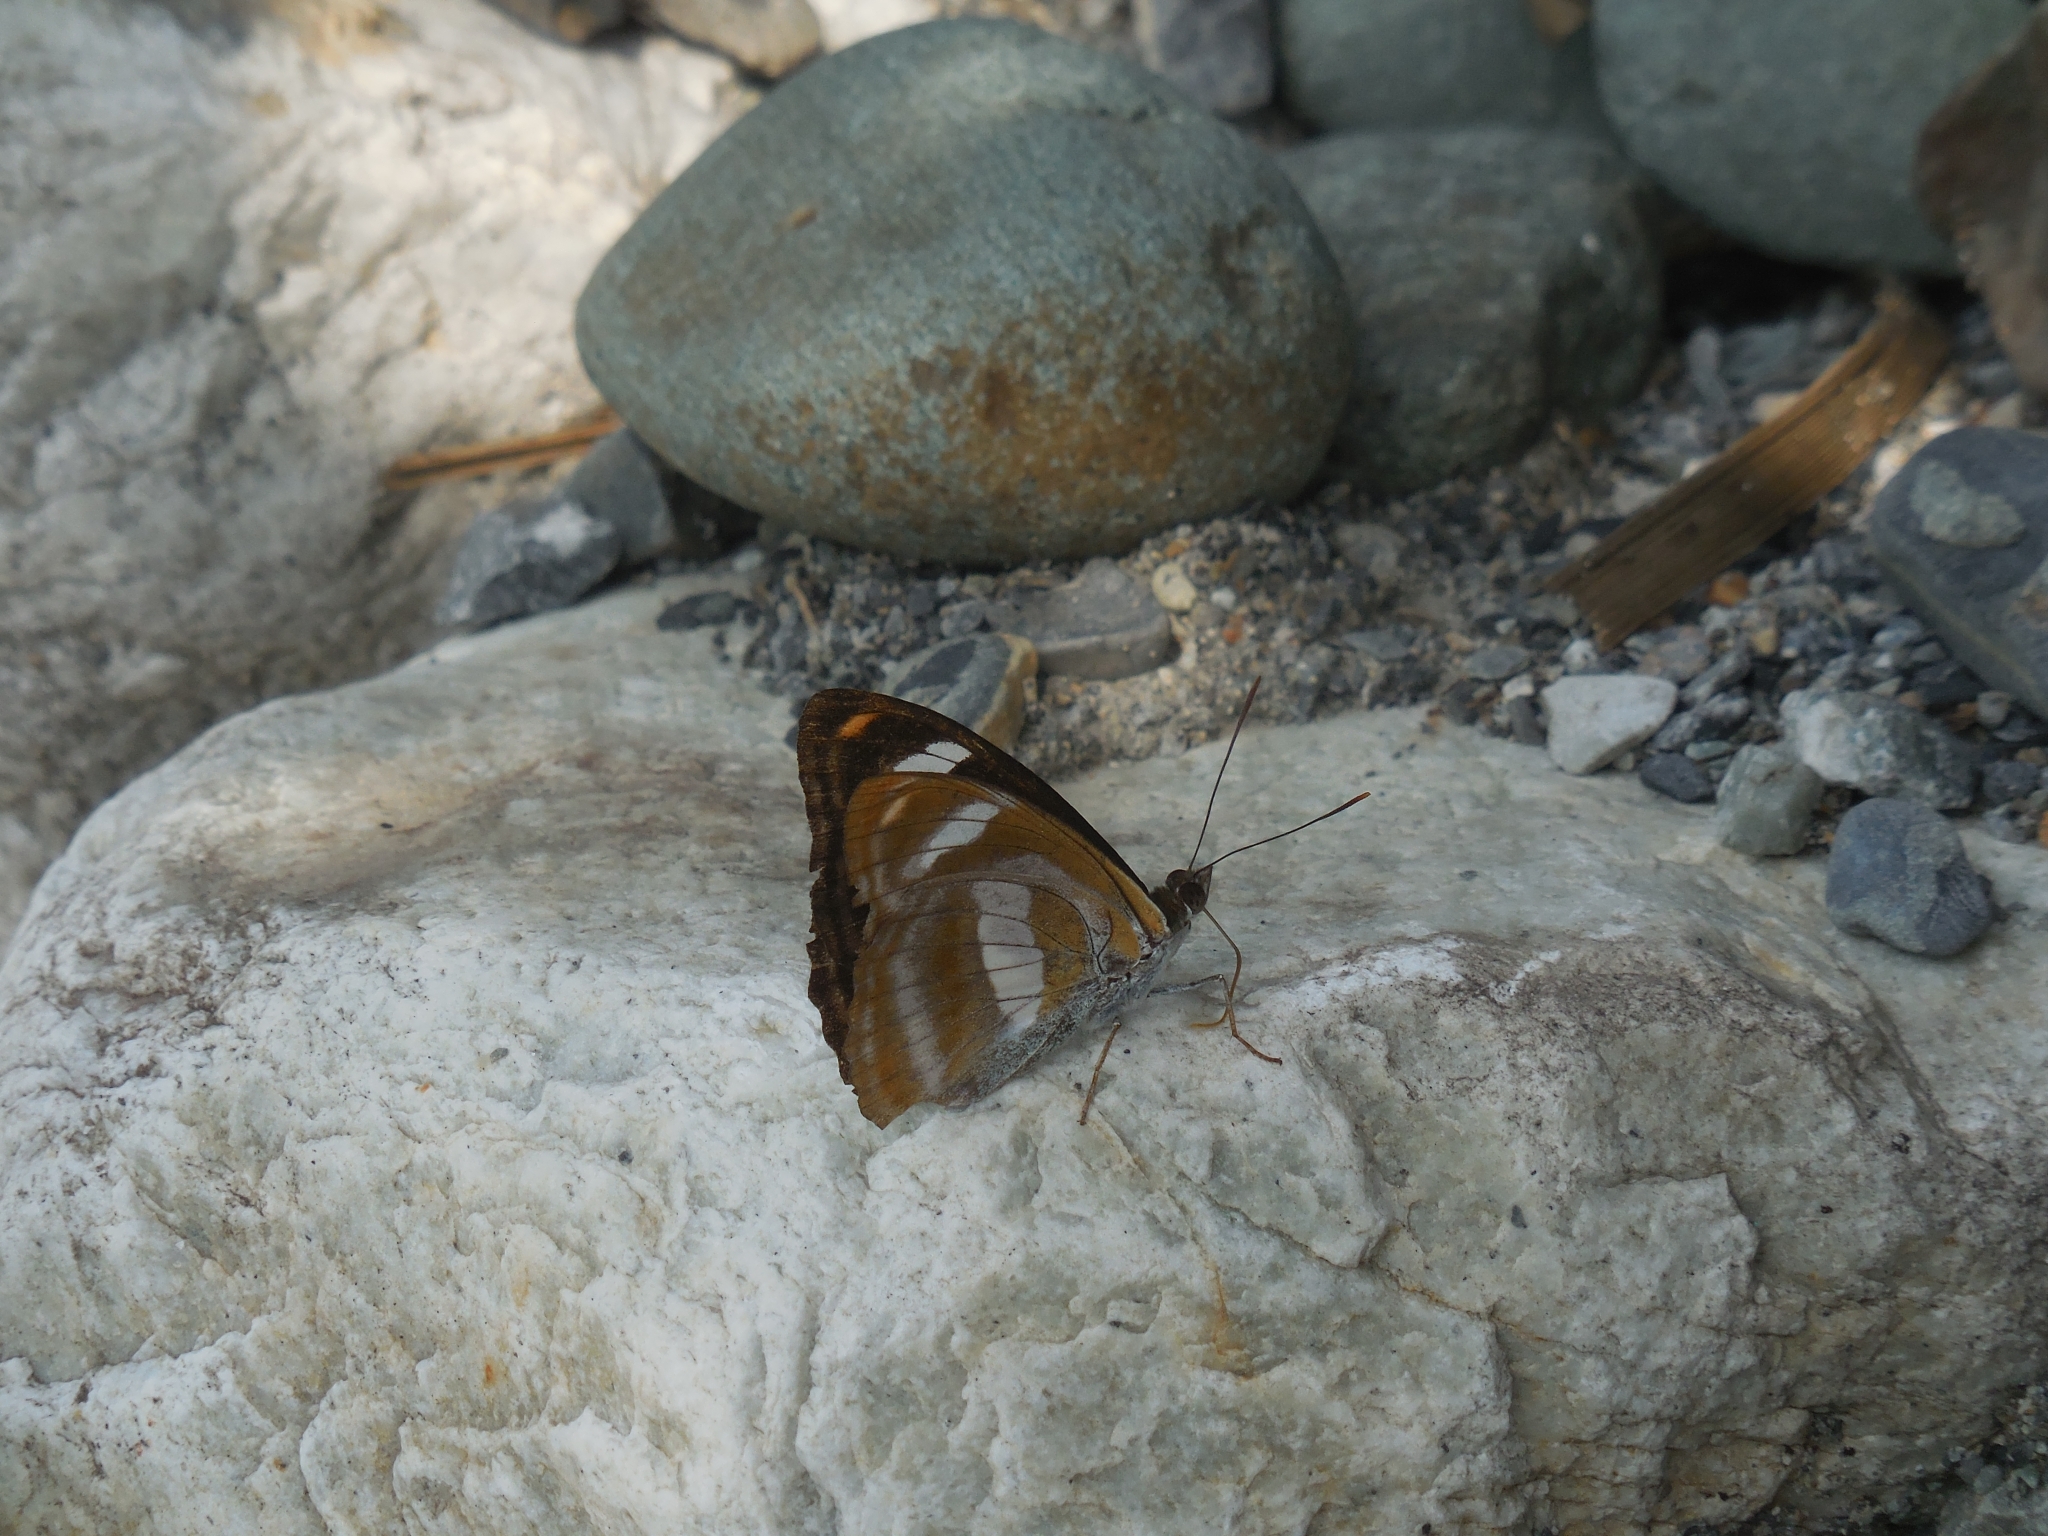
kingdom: Animalia
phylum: Arthropoda
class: Insecta
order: Lepidoptera
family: Nymphalidae
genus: Pantoporia
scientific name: Pantoporia cama
